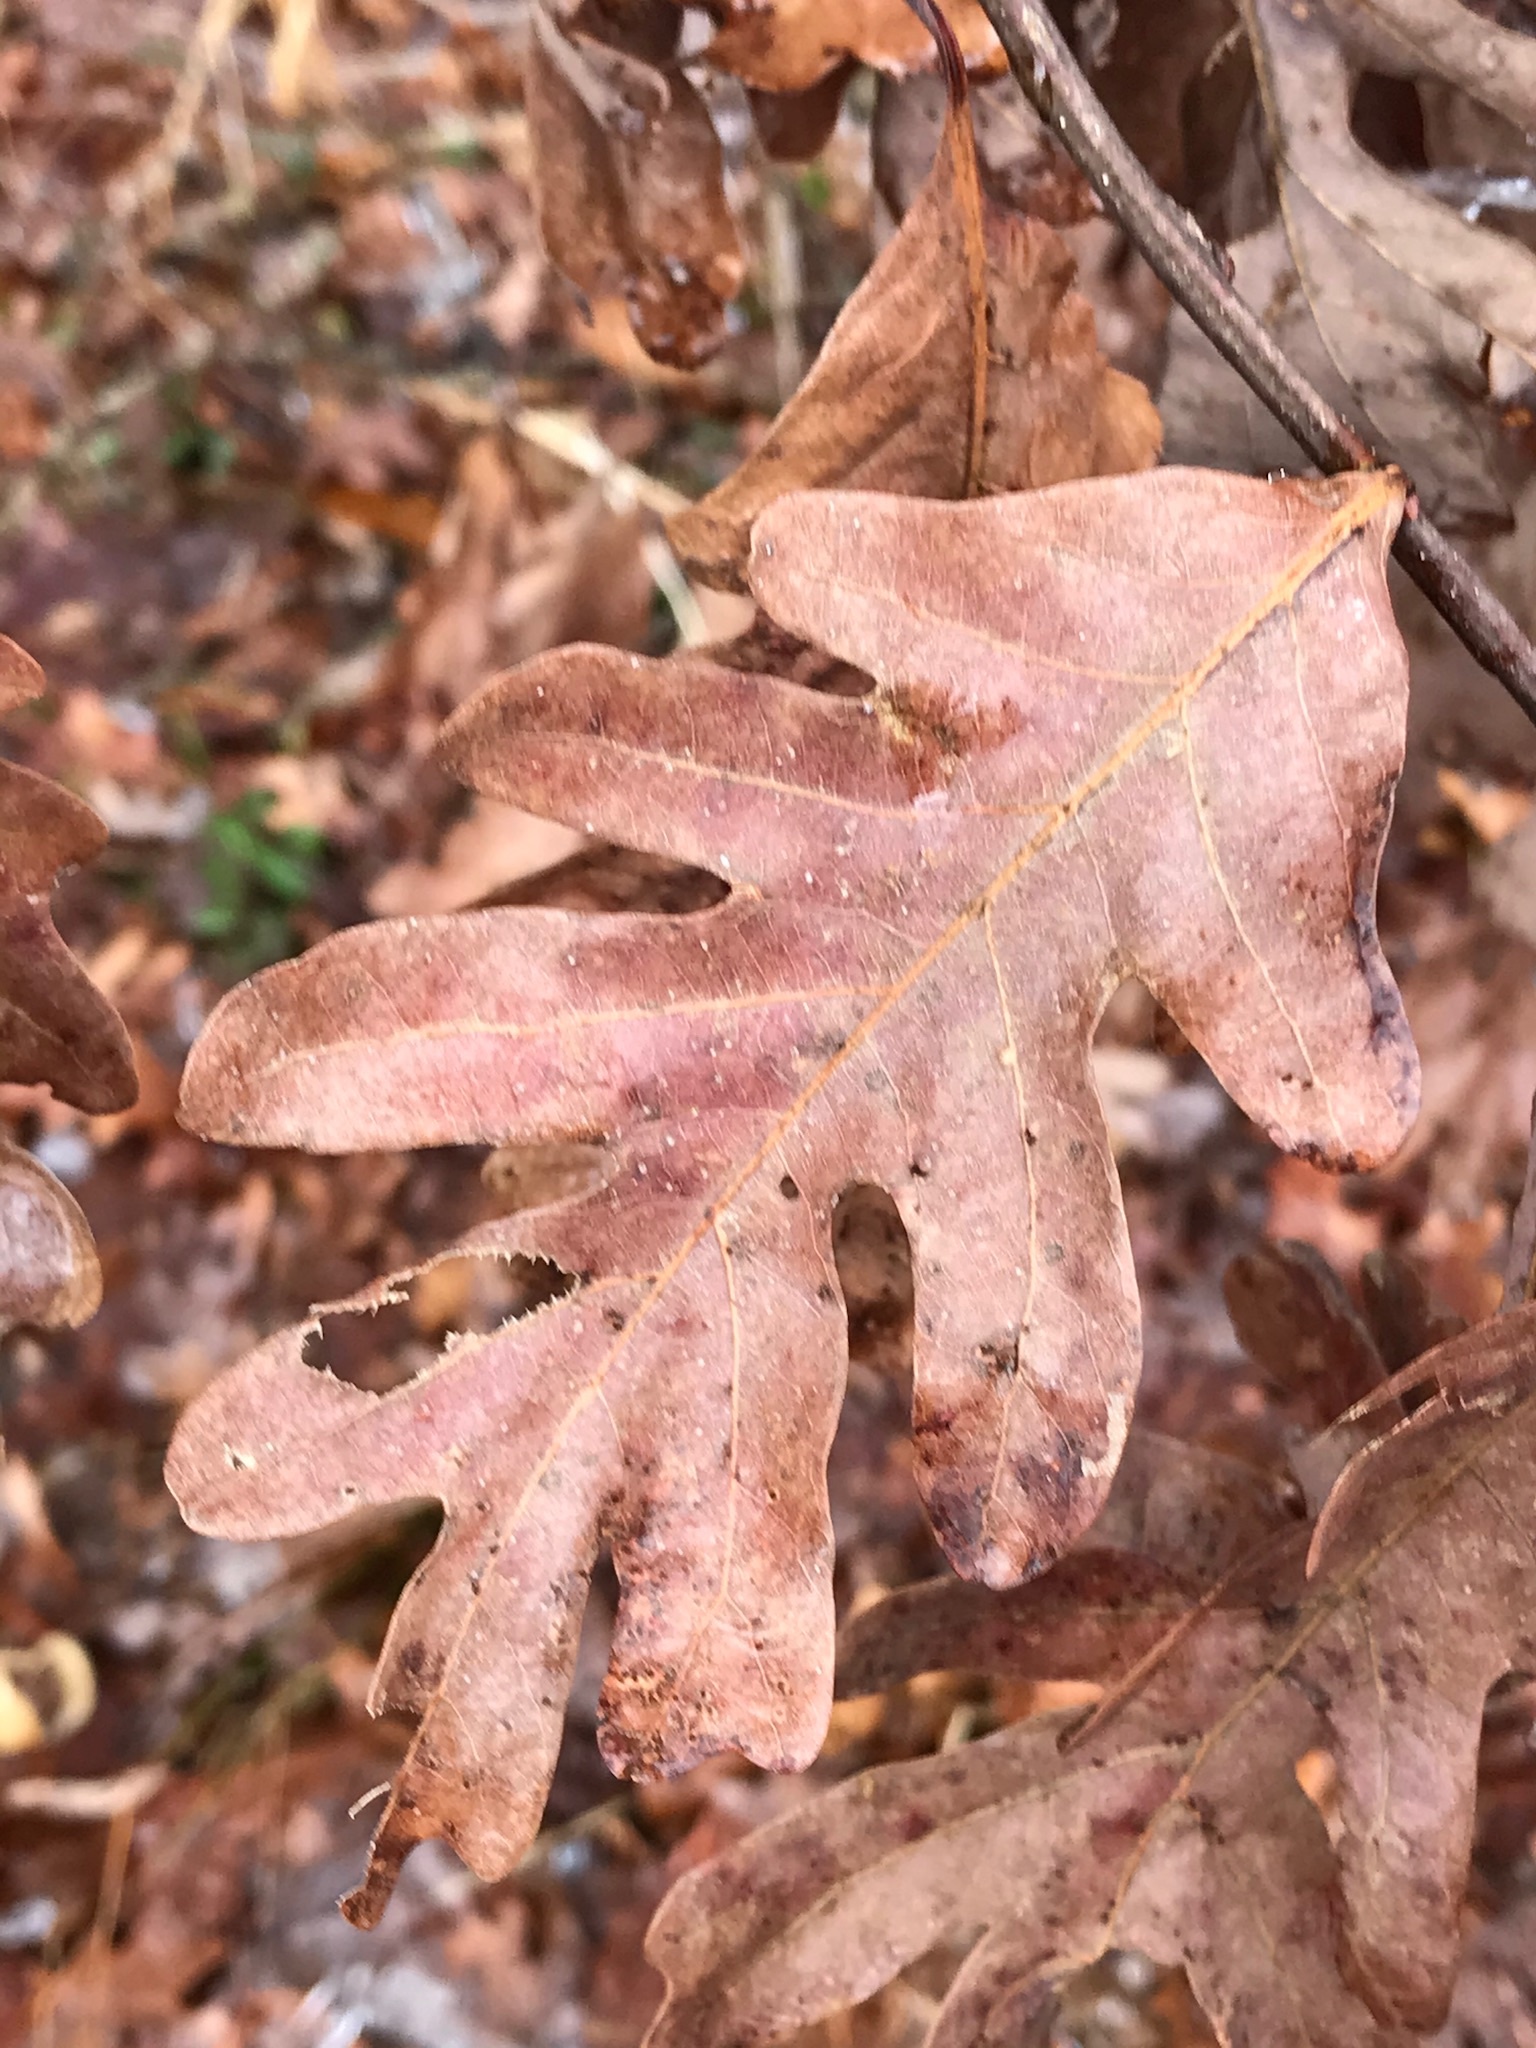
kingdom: Plantae
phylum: Tracheophyta
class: Magnoliopsida
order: Fagales
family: Fagaceae
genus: Quercus
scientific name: Quercus alba
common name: White oak
